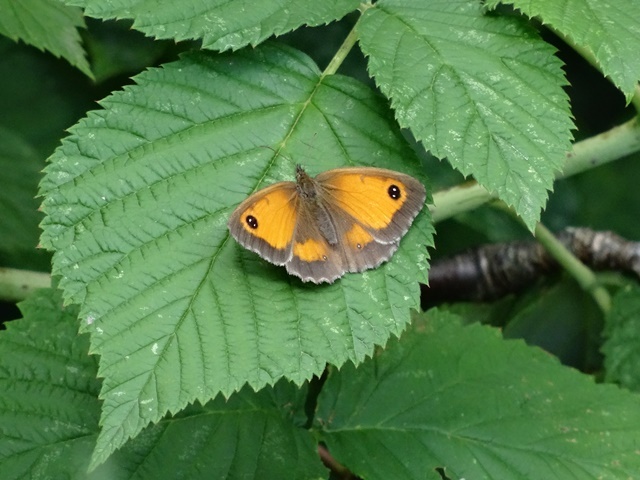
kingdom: Animalia
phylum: Arthropoda
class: Insecta
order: Lepidoptera
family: Nymphalidae
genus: Pyronia
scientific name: Pyronia tithonus
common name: Gatekeeper
